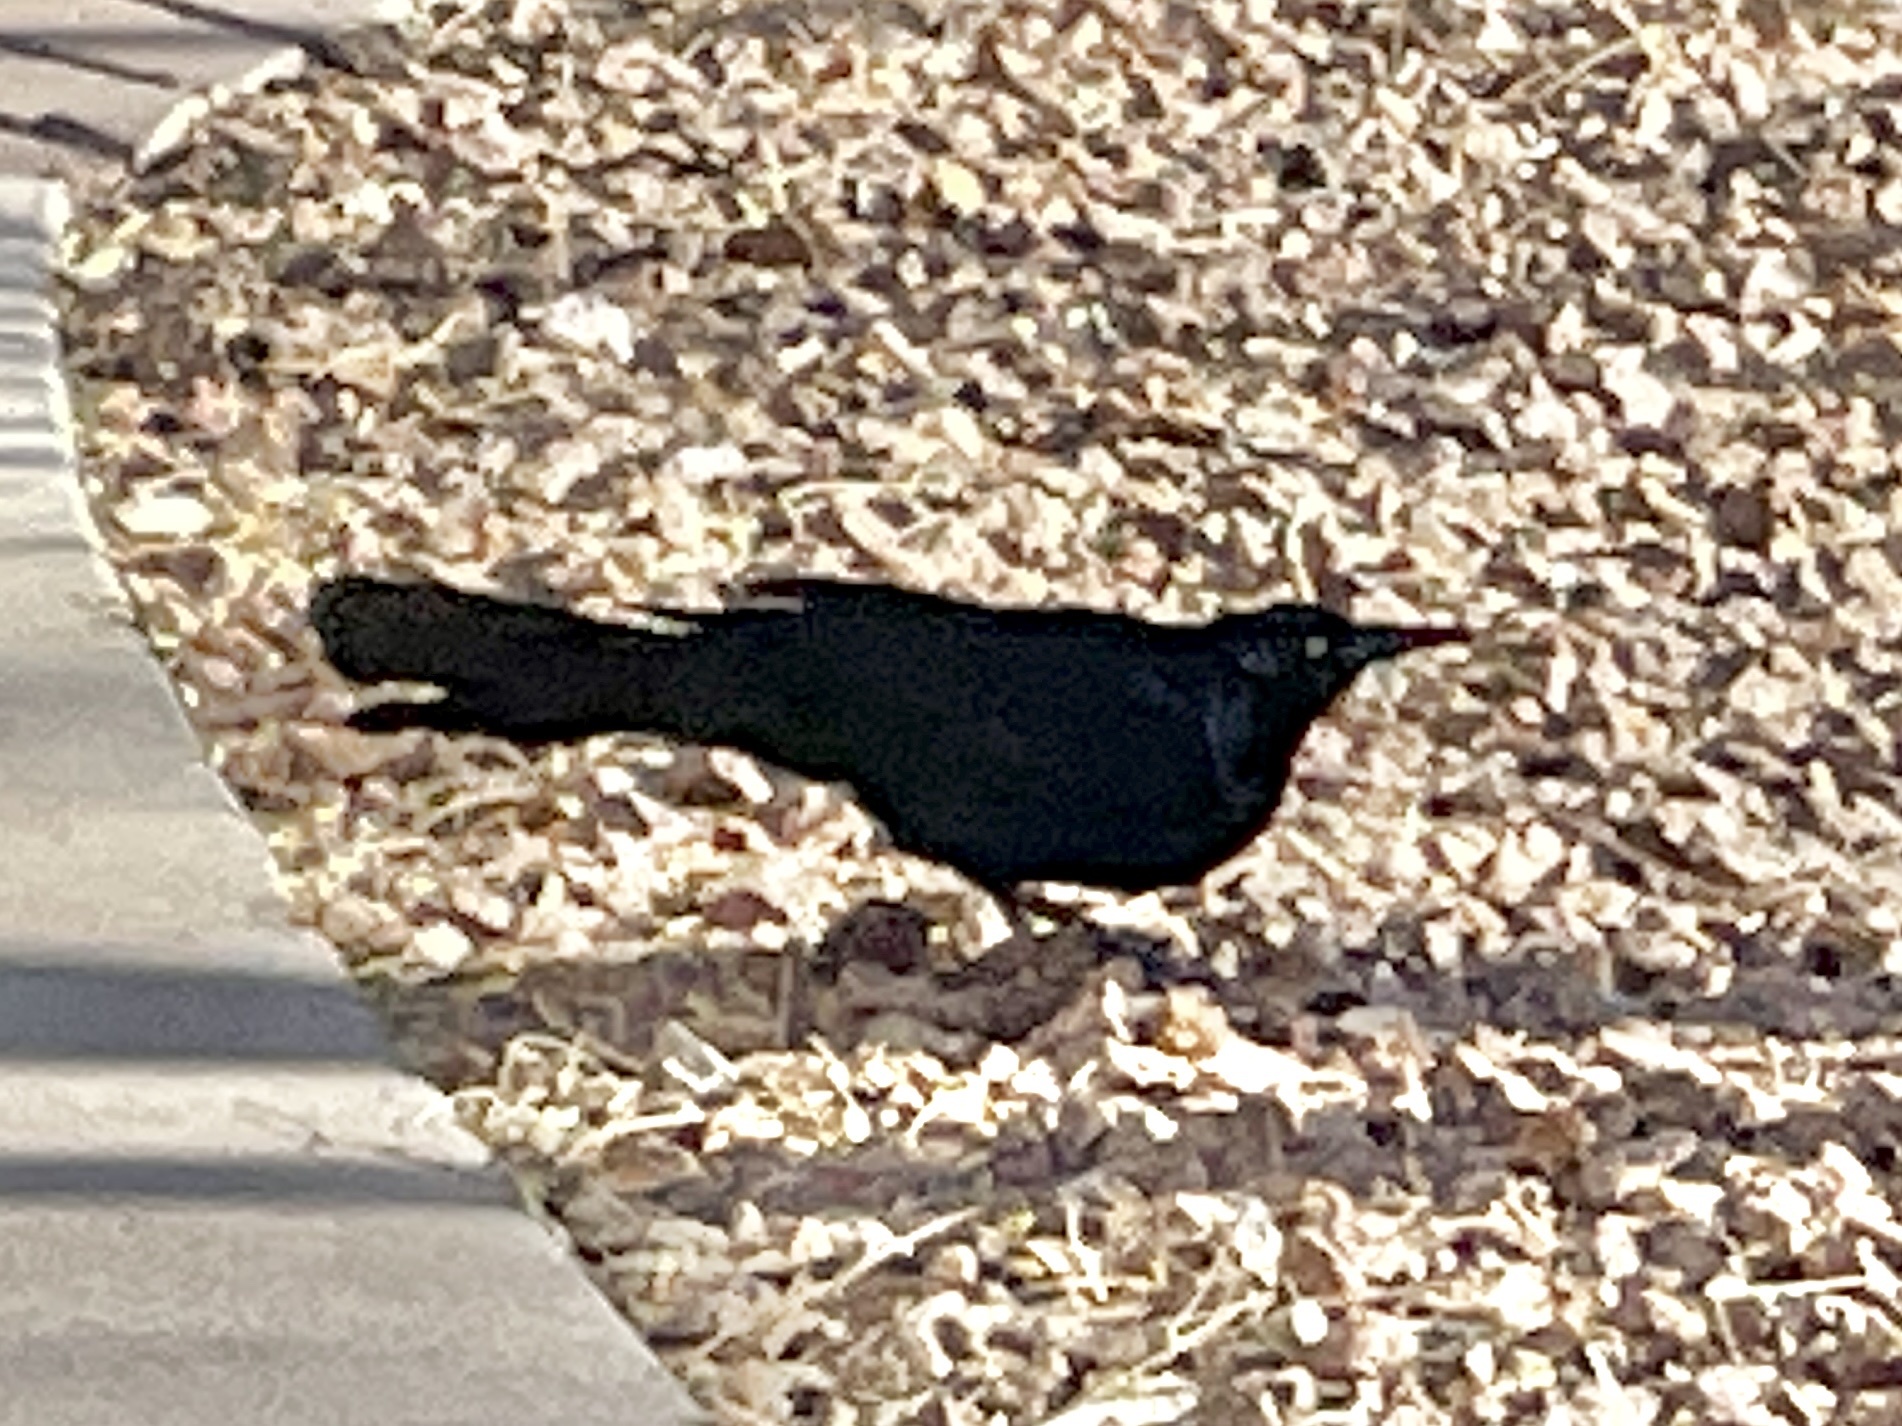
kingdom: Animalia
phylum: Chordata
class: Aves
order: Passeriformes
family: Icteridae
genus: Quiscalus
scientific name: Quiscalus mexicanus
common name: Great-tailed grackle
